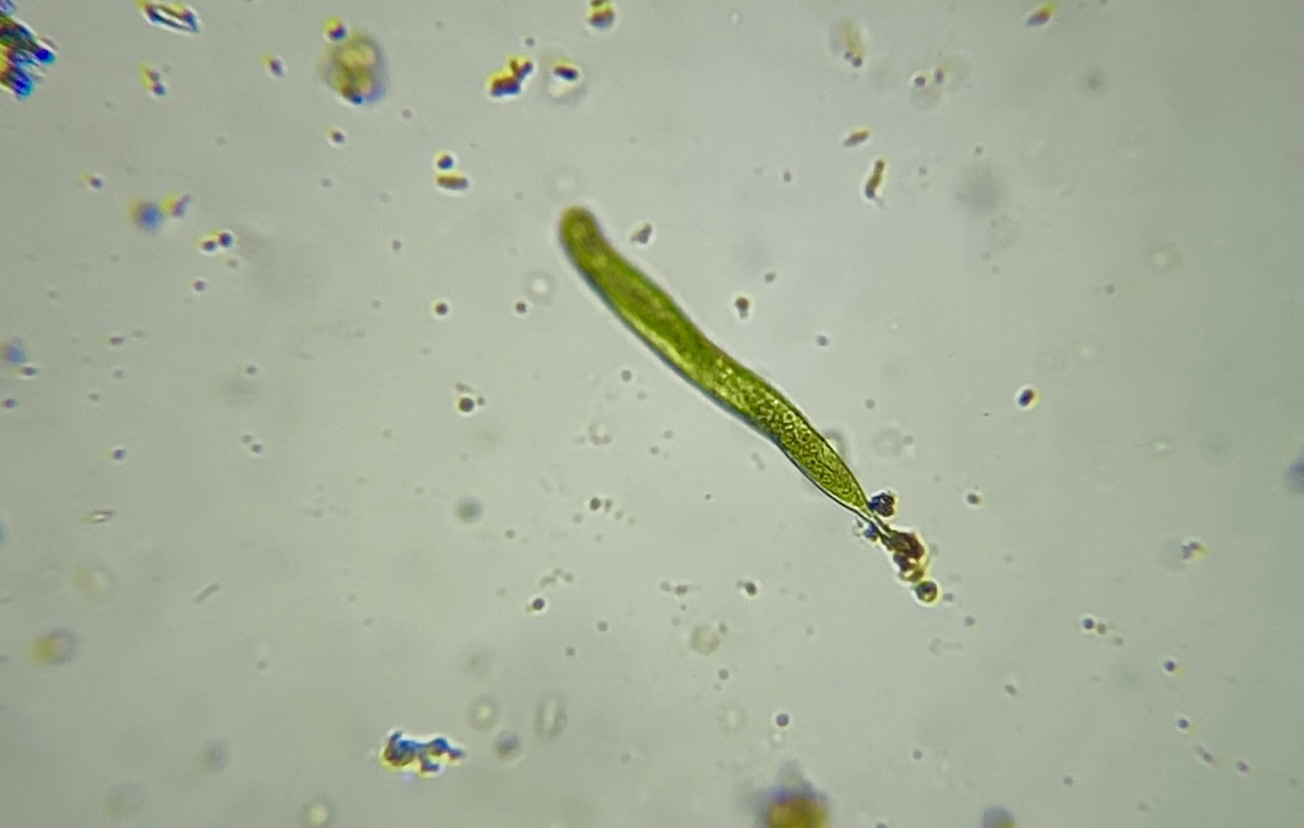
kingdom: Protozoa
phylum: Euglenozoa
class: Euglenoidea
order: Euglenida
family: Phacidae
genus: Lepocinclis
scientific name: Lepocinclis tripteris
